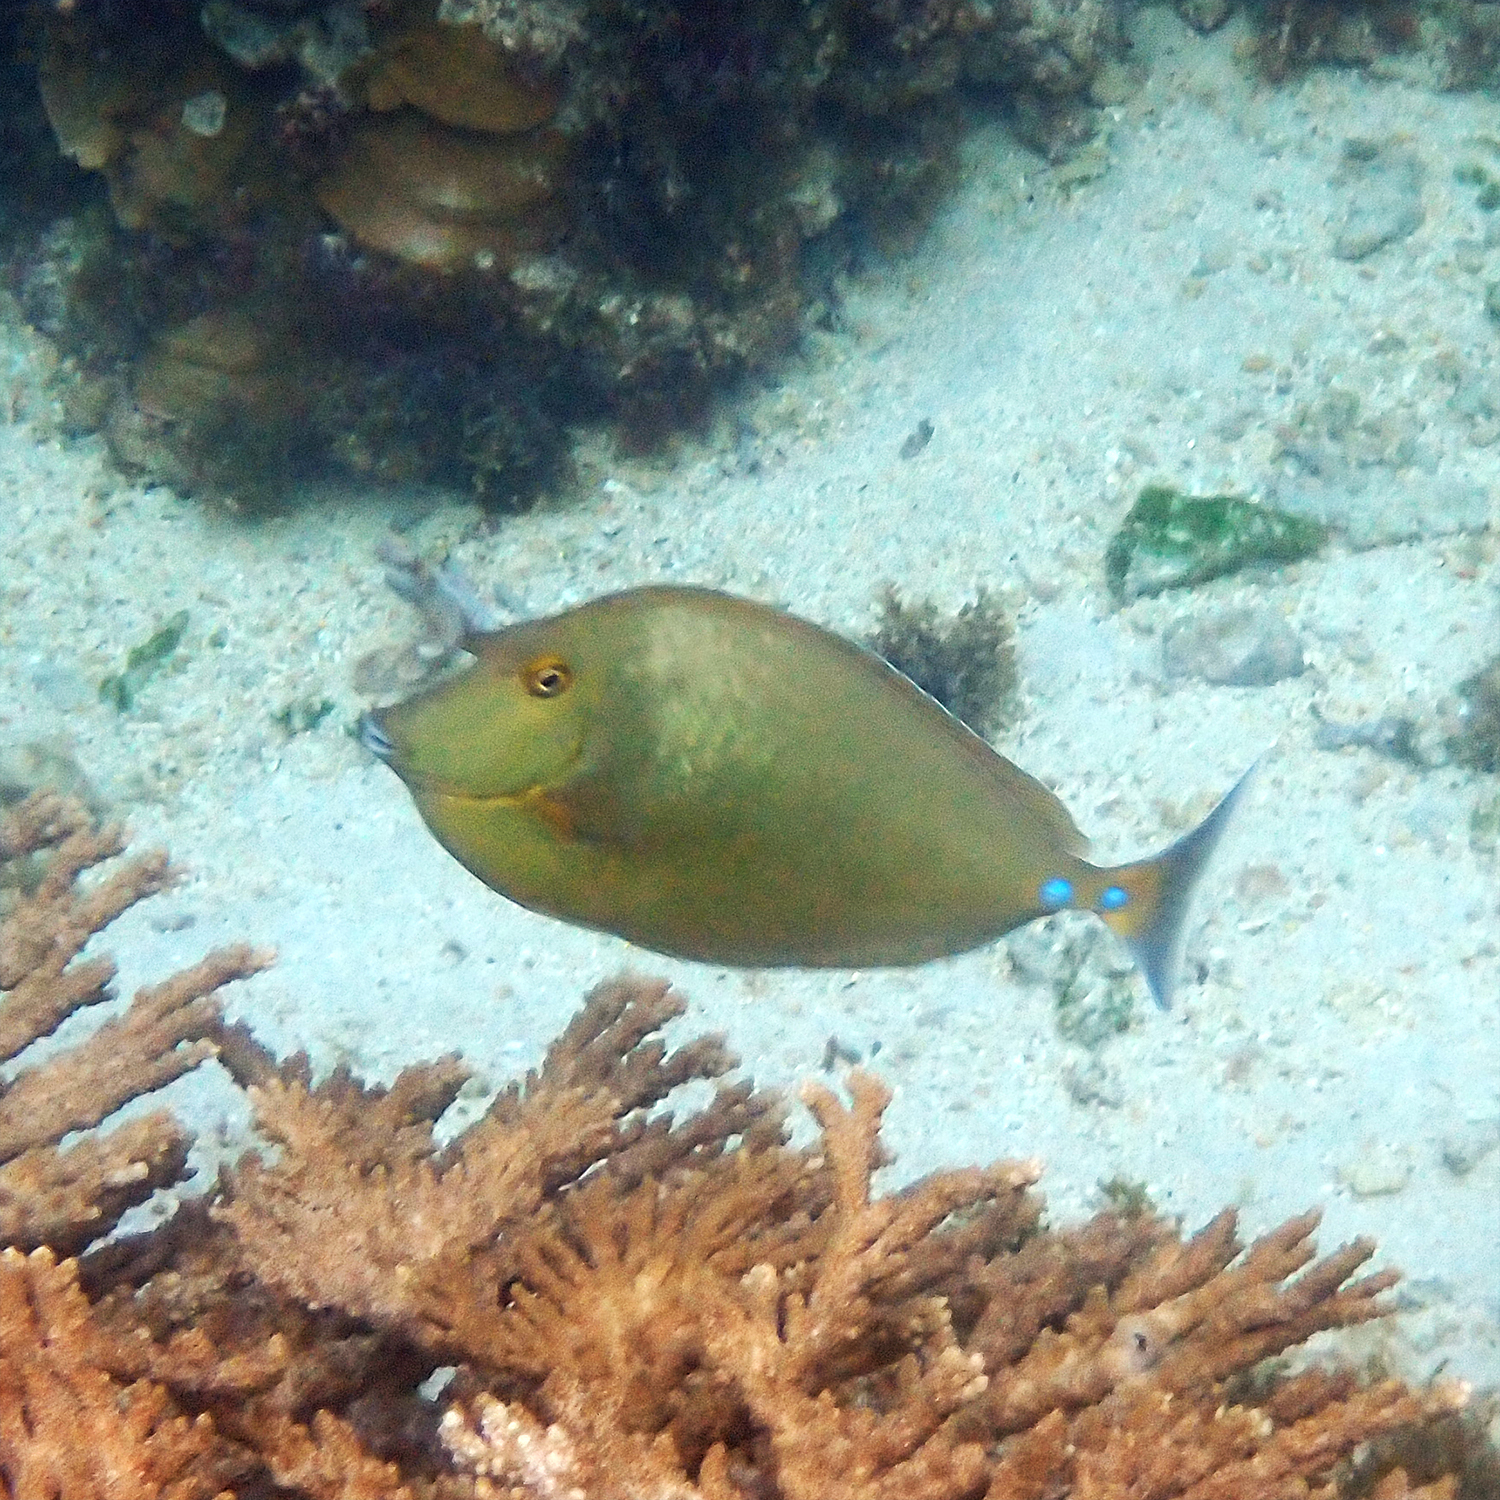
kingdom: Animalia
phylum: Chordata
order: Perciformes
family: Acanthuridae
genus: Naso
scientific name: Naso unicornis
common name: Bluespine unicornfish
